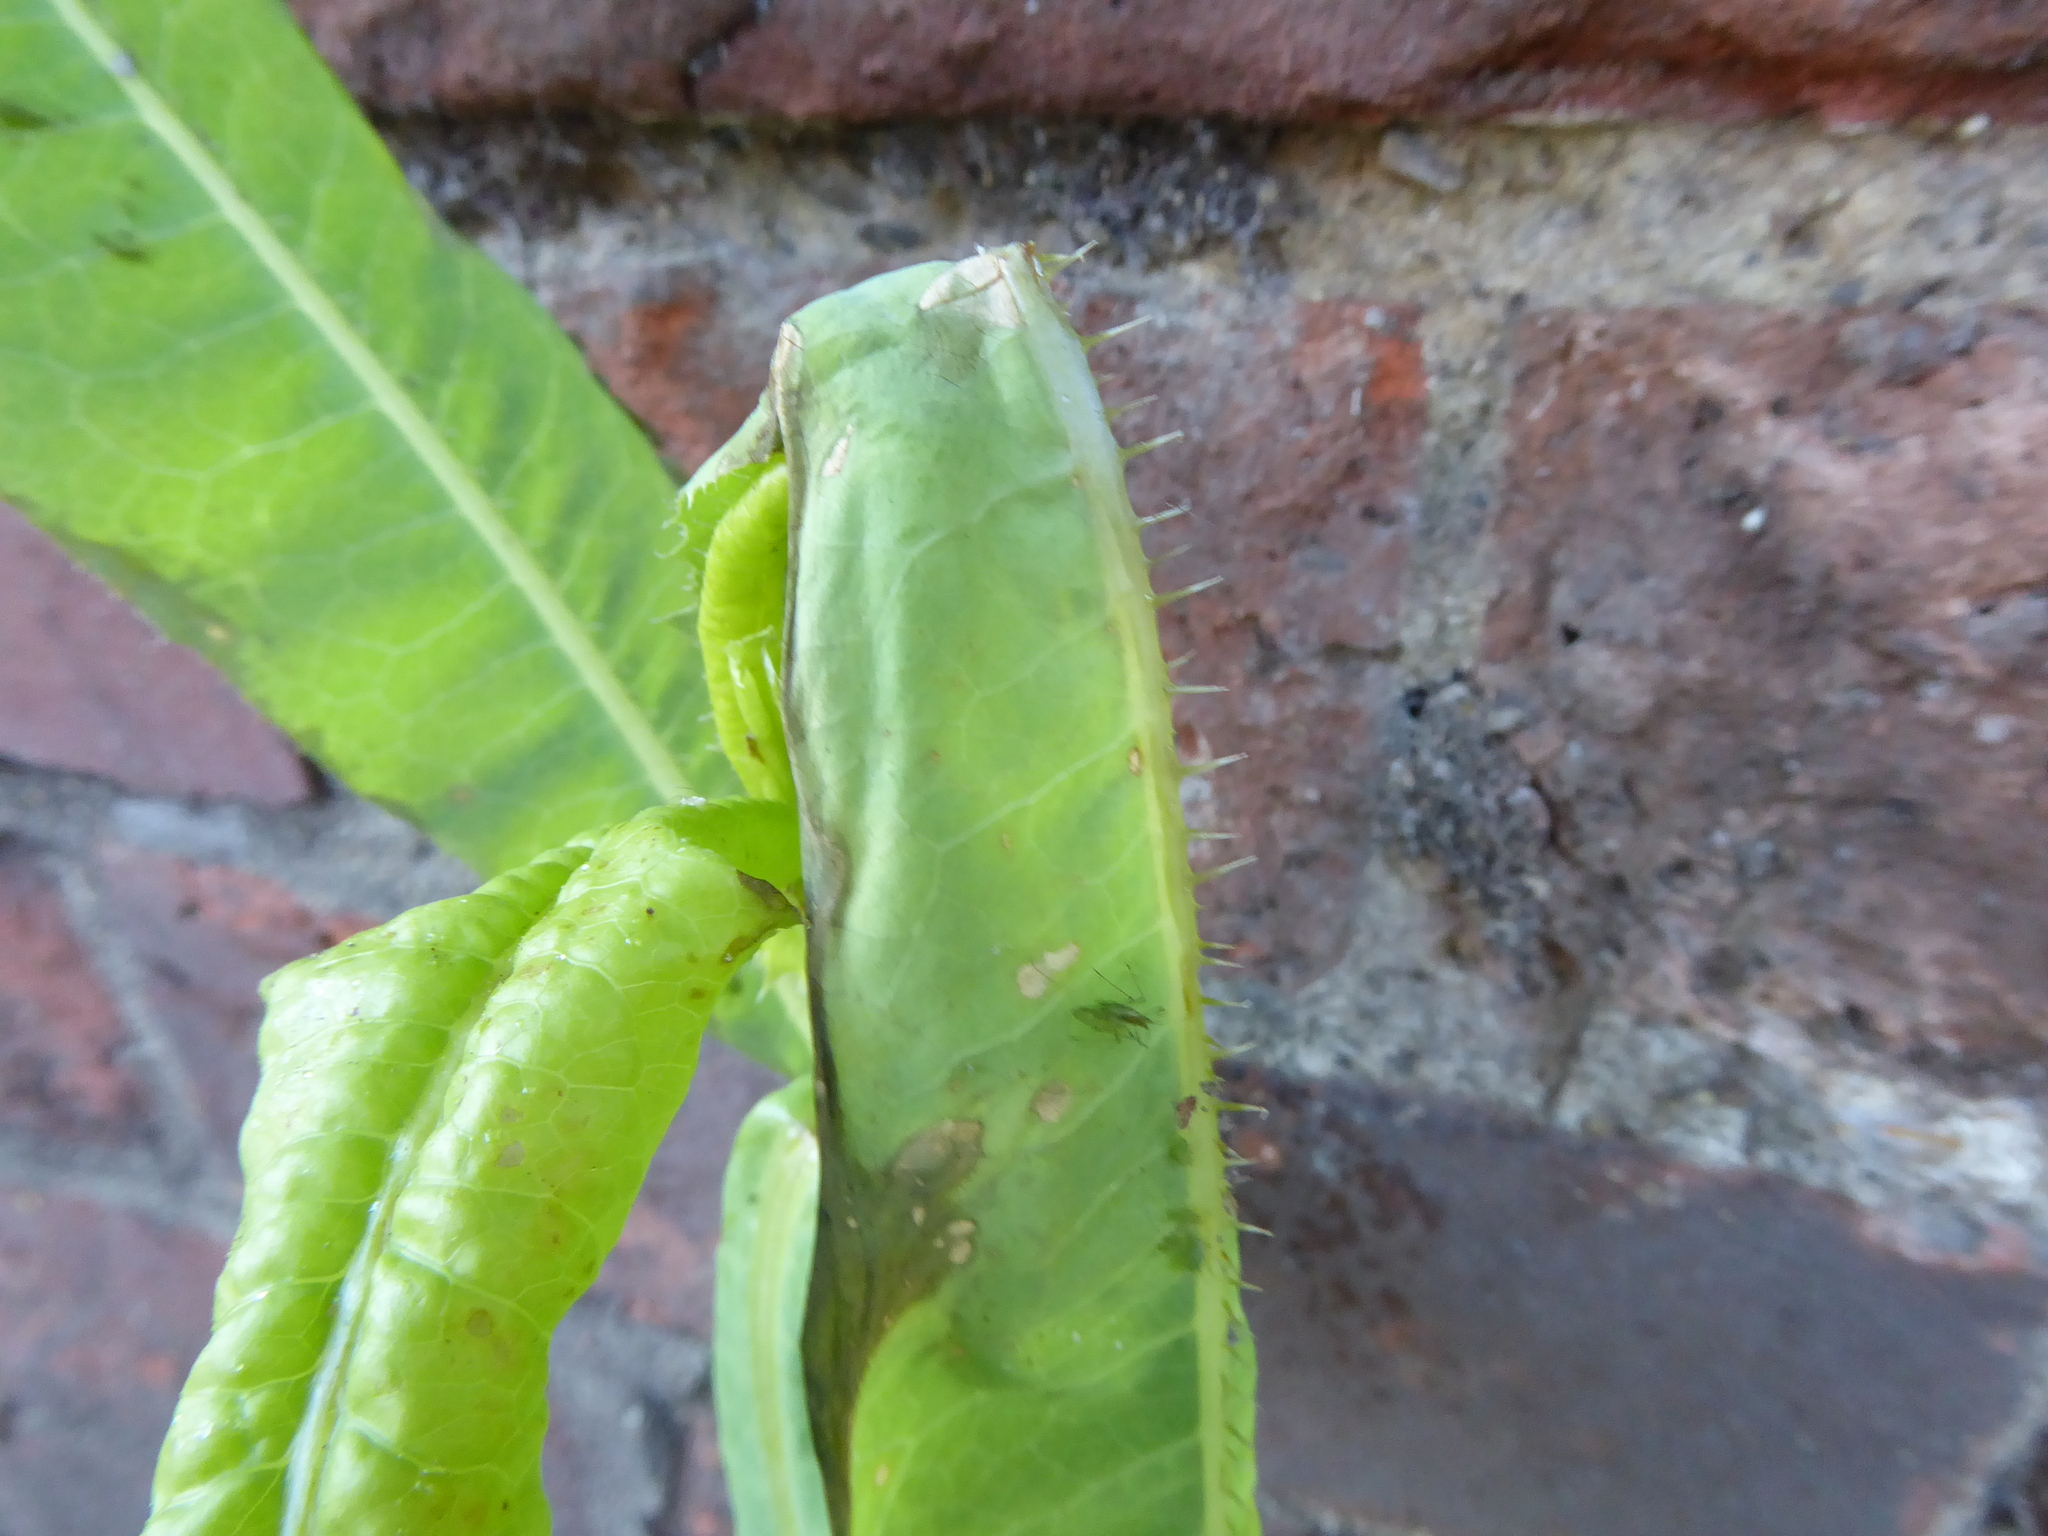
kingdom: Plantae
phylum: Tracheophyta
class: Magnoliopsida
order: Asterales
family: Asteraceae
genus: Lactuca
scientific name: Lactuca serriola
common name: Prickly lettuce
